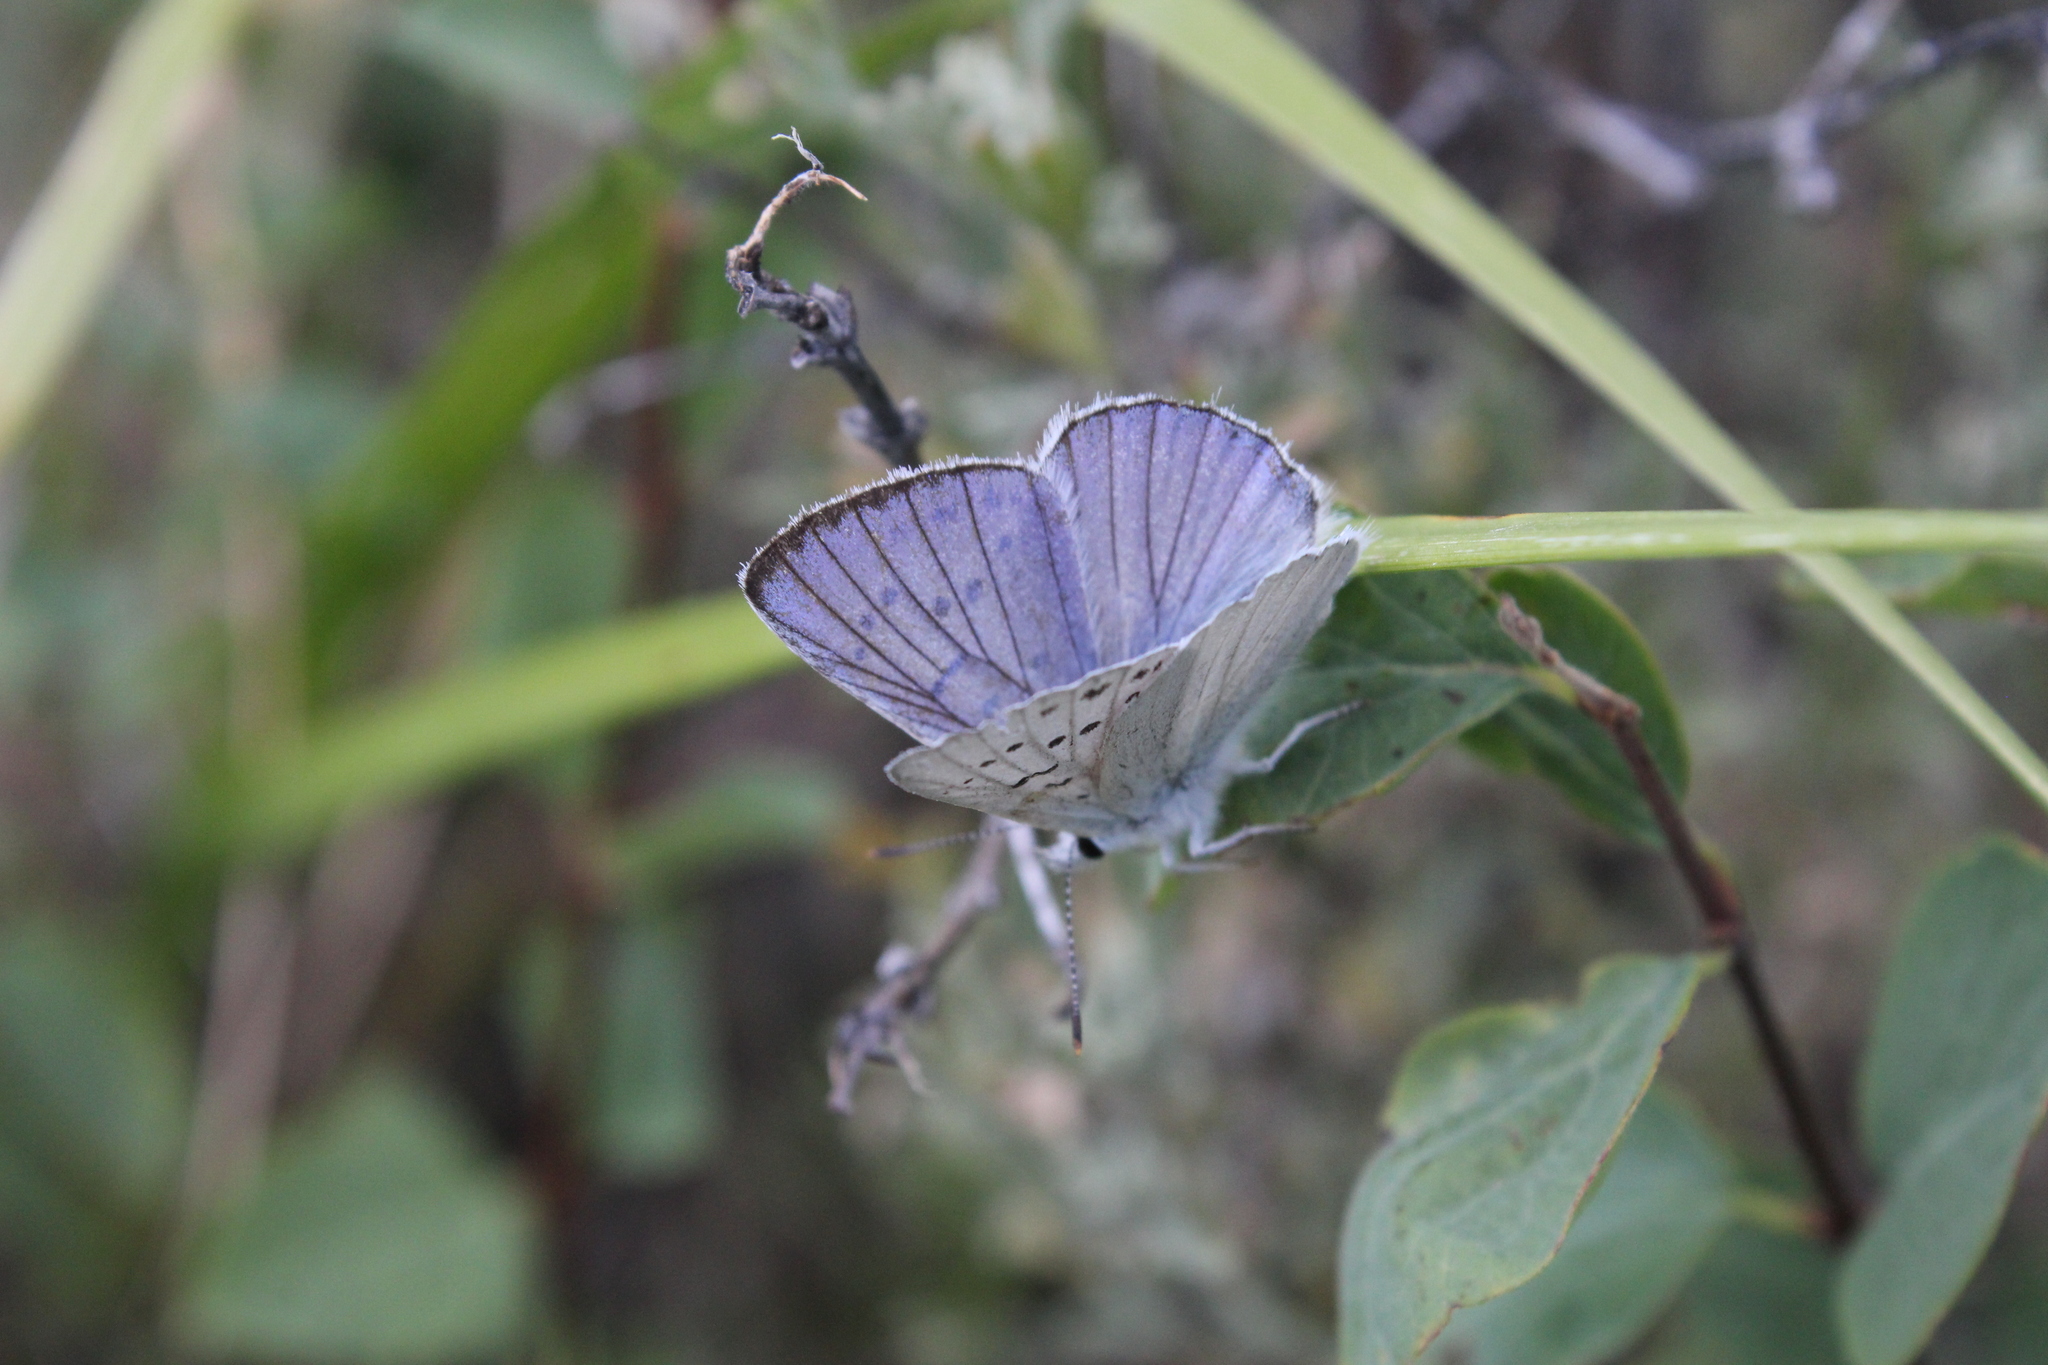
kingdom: Animalia
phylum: Arthropoda
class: Insecta
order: Lepidoptera
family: Lycaenidae
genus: Tharsalea
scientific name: Tharsalea heteronea
